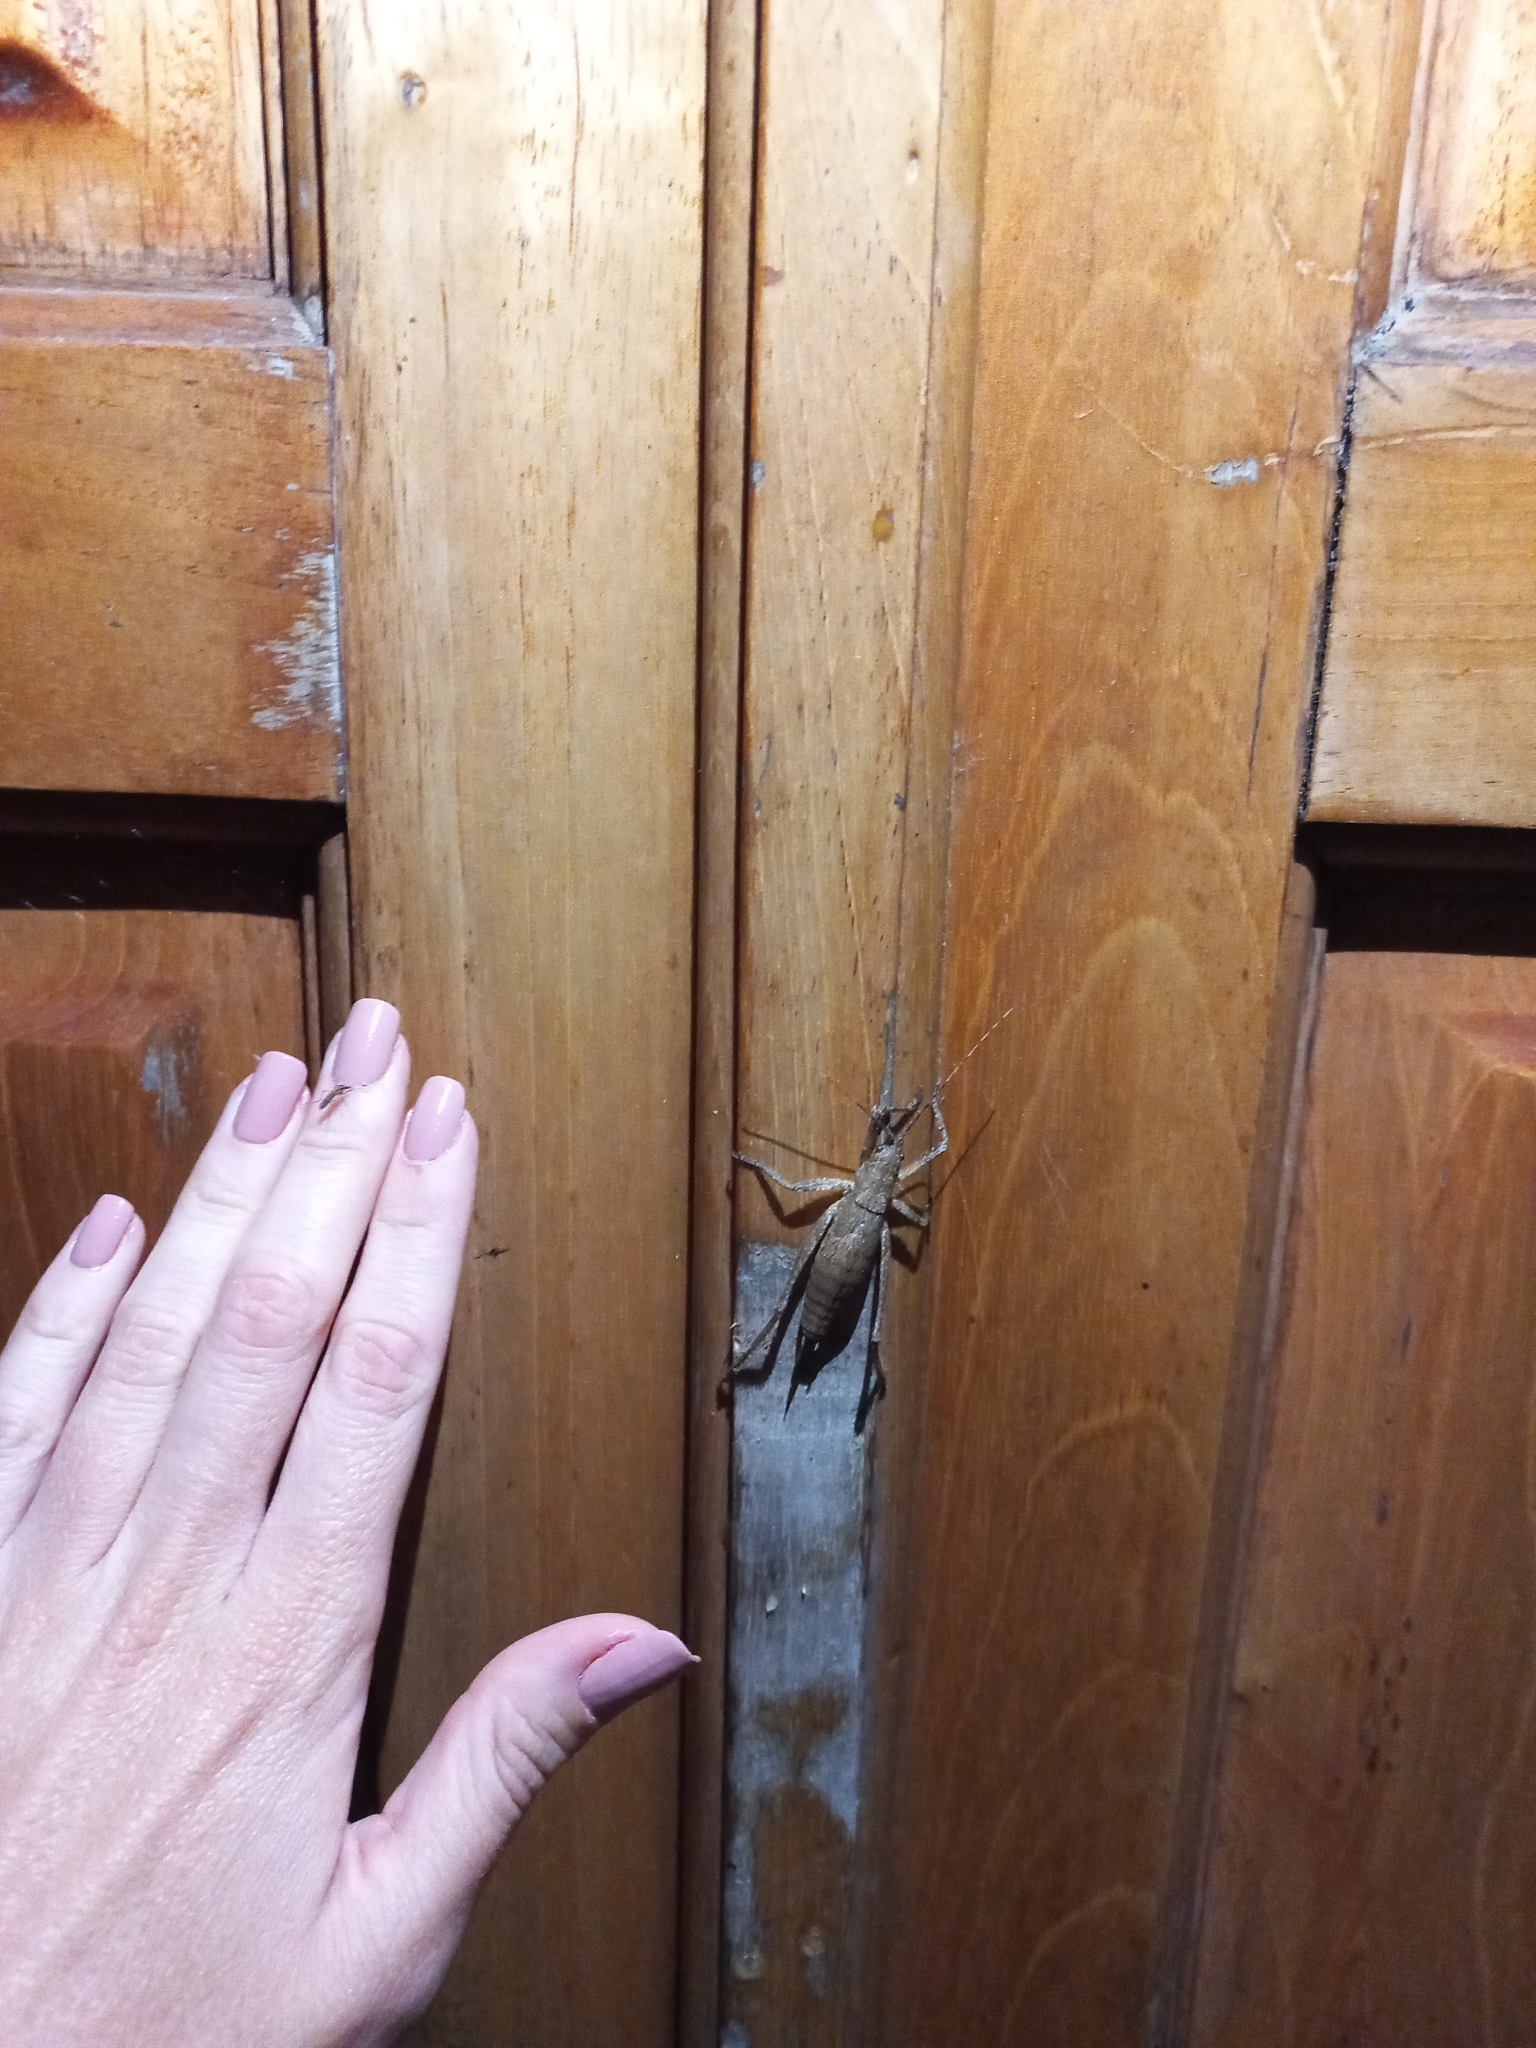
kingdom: Animalia
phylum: Arthropoda
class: Insecta
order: Orthoptera
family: Tettigoniidae
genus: Dasyscelus
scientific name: Dasyscelus normalis
